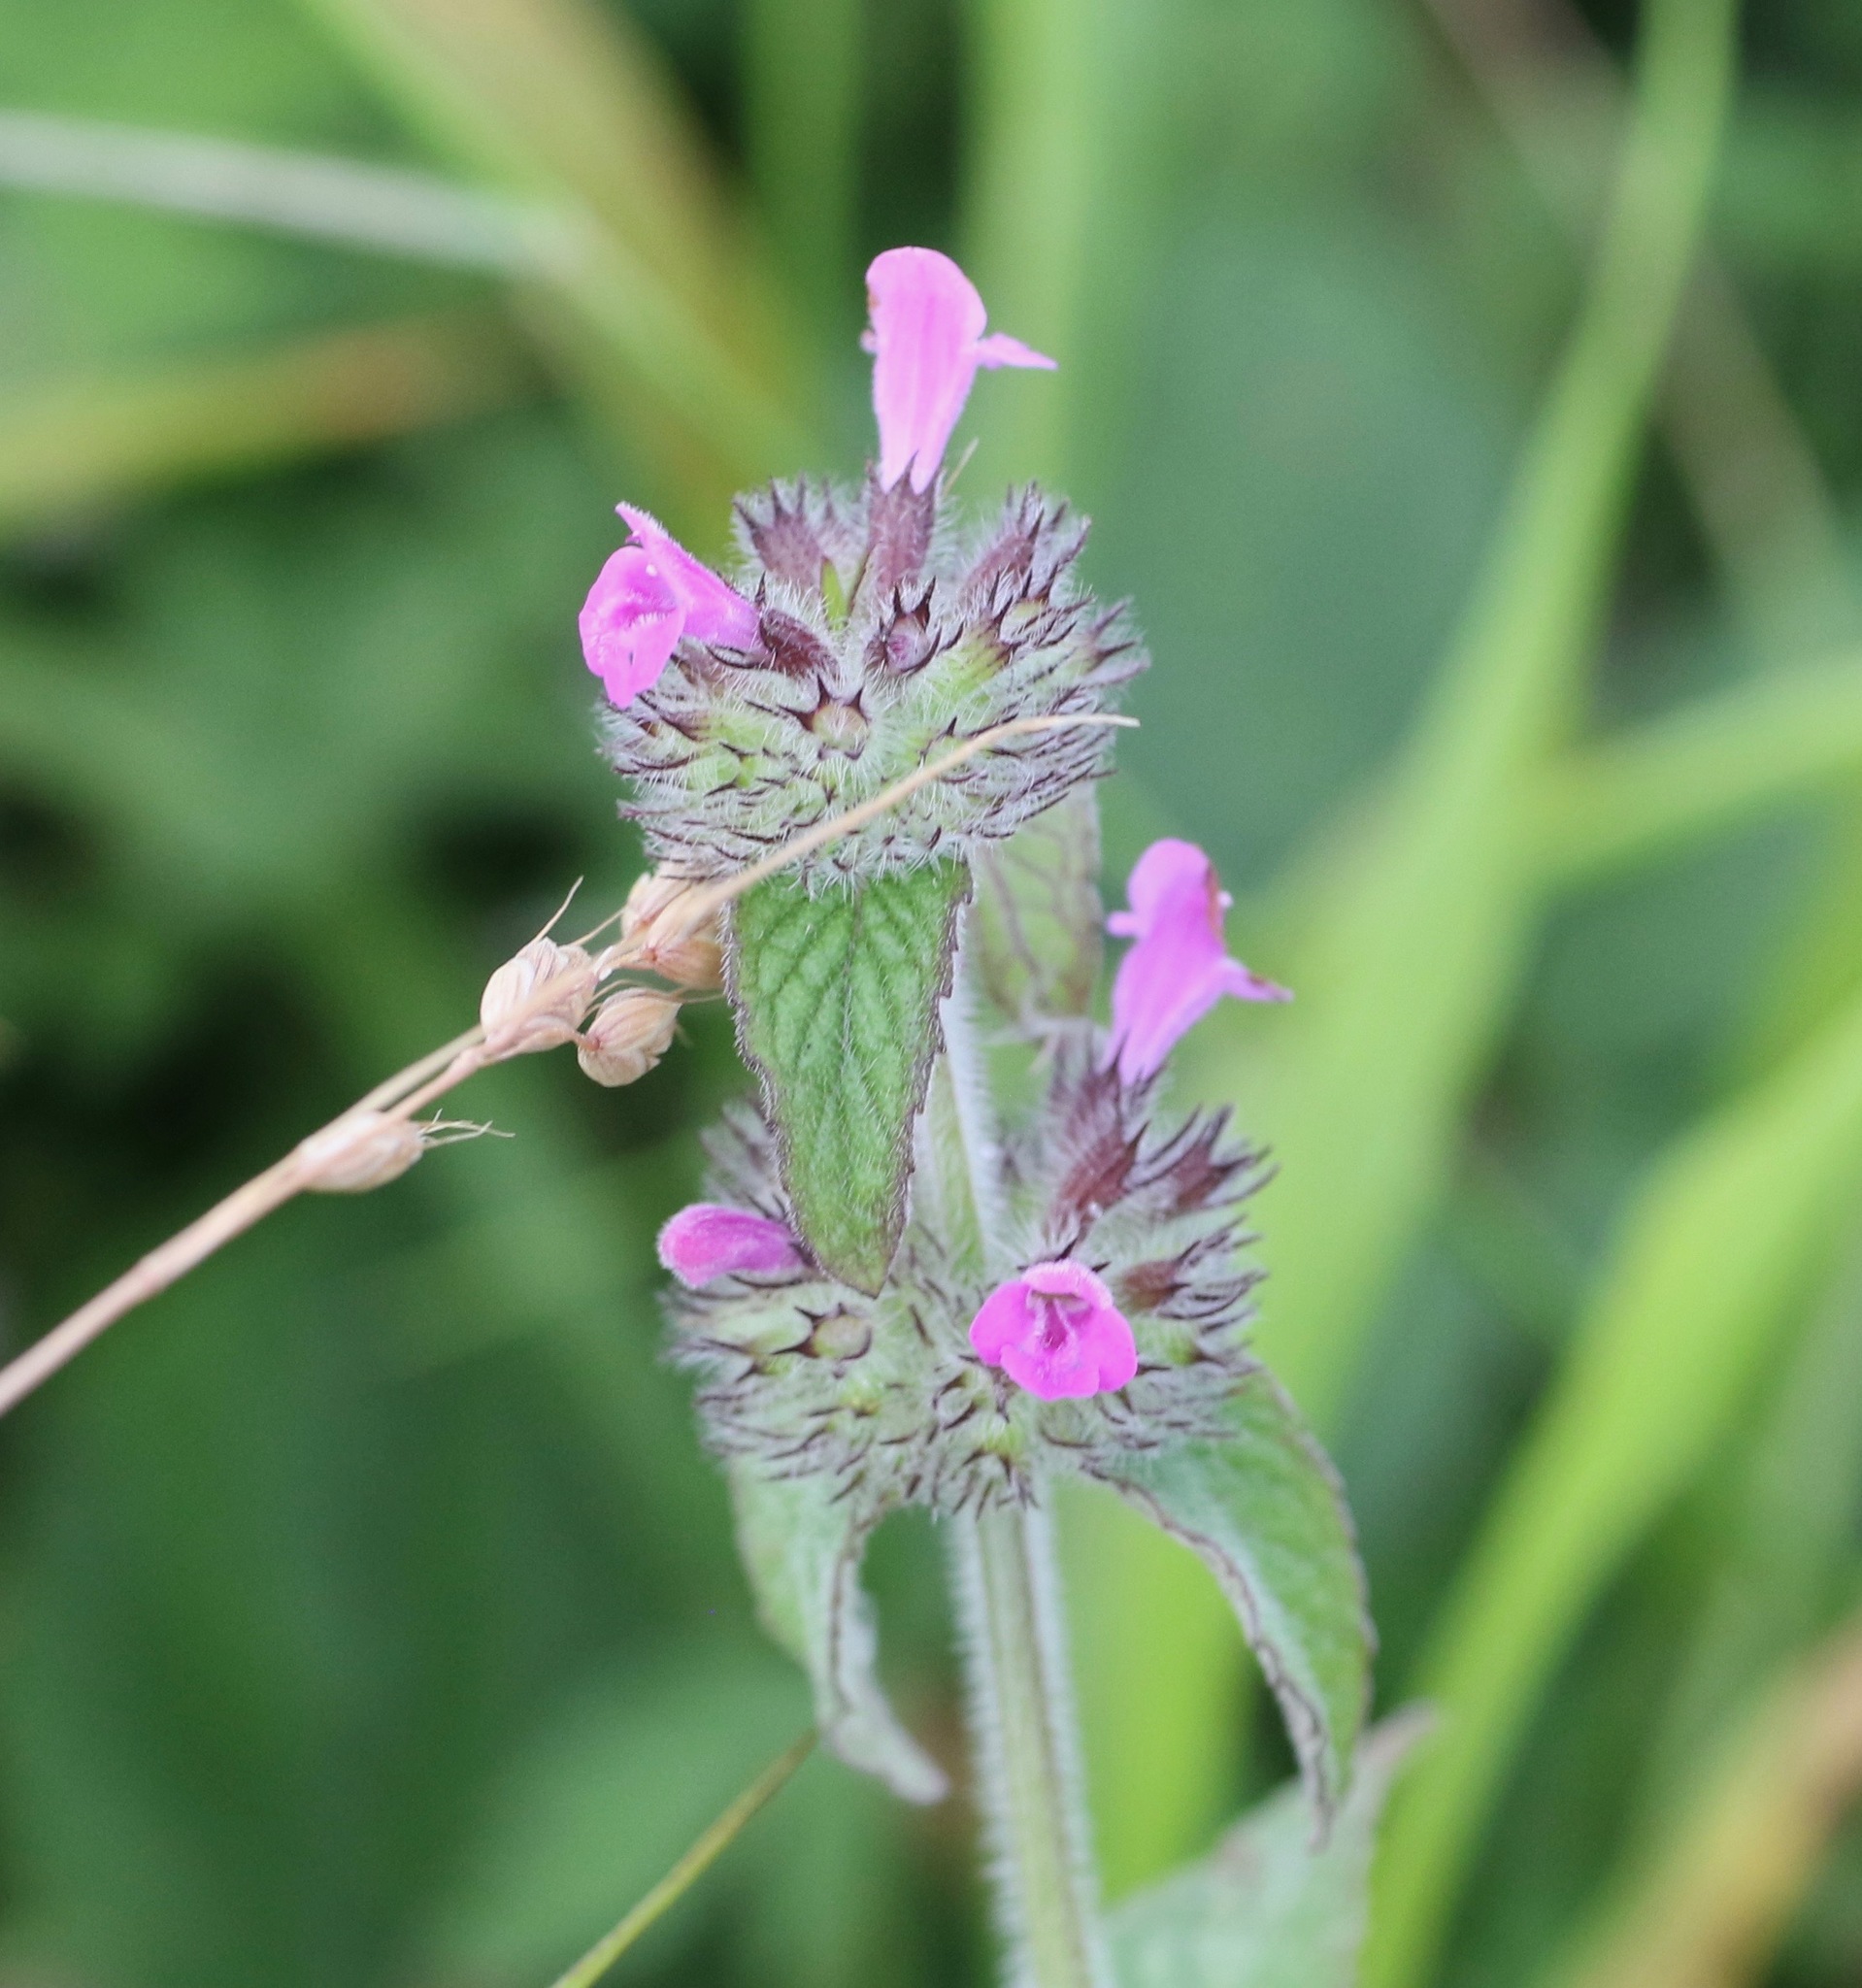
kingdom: Plantae
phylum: Tracheophyta
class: Magnoliopsida
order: Lamiales
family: Lamiaceae
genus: Clinopodium
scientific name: Clinopodium vulgare
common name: Wild basil
